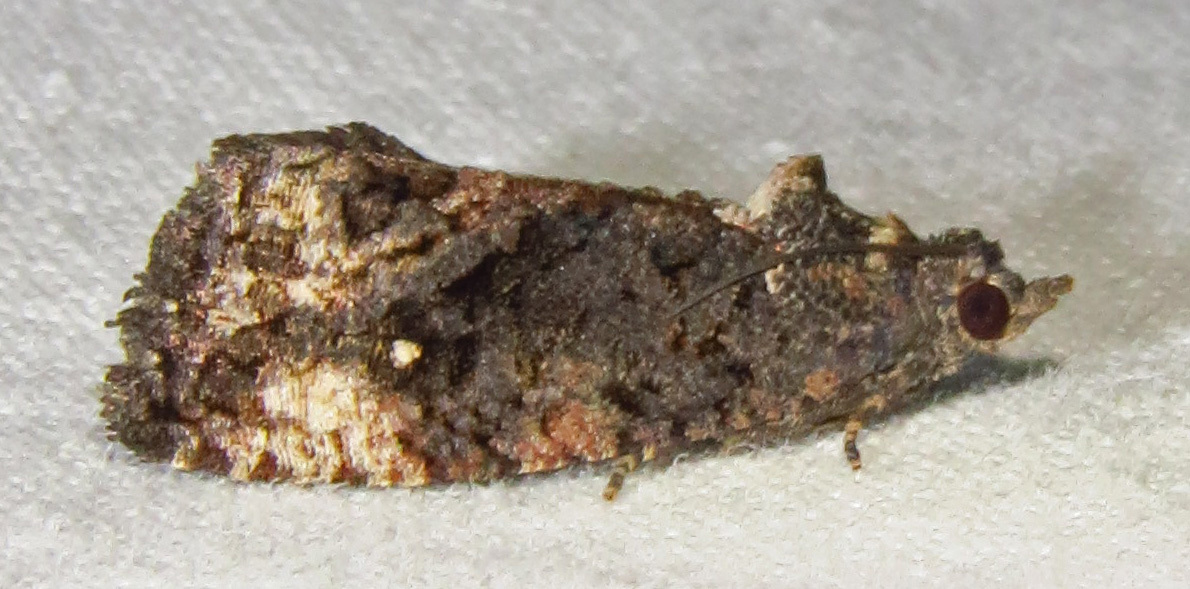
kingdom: Animalia
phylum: Arthropoda
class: Insecta
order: Lepidoptera
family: Tortricidae
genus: Gymnandrosoma
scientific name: Gymnandrosoma punctidiscanum
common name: Dotted ecdytolopha moth
